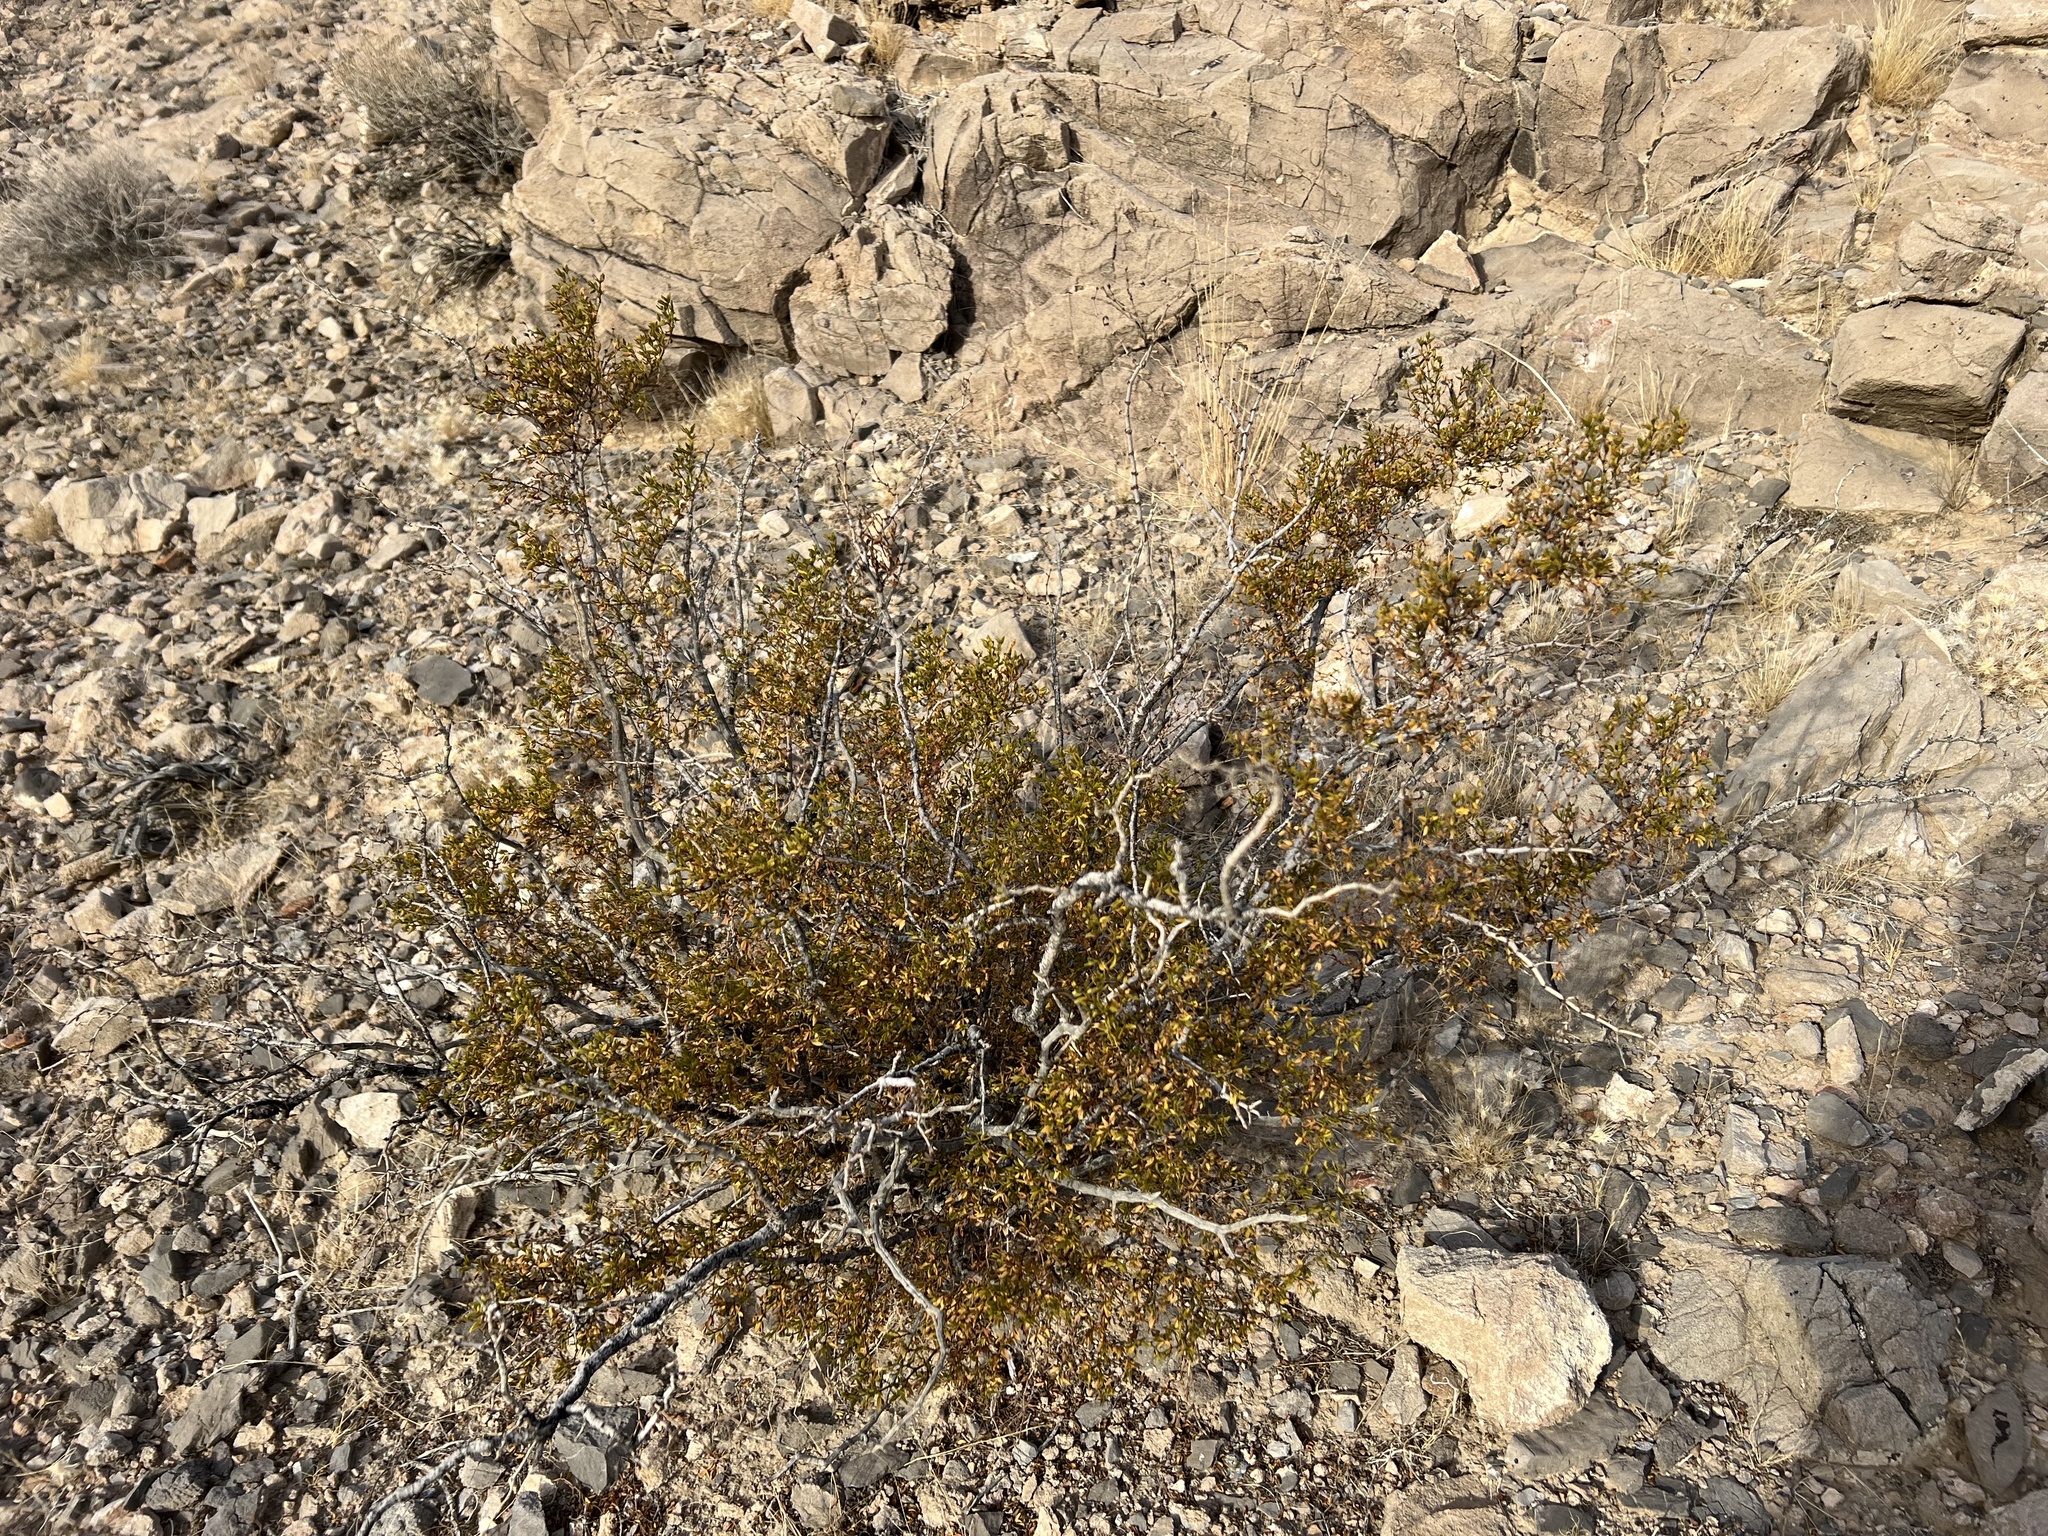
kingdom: Plantae
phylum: Tracheophyta
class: Magnoliopsida
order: Zygophyllales
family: Zygophyllaceae
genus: Larrea
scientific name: Larrea tridentata
